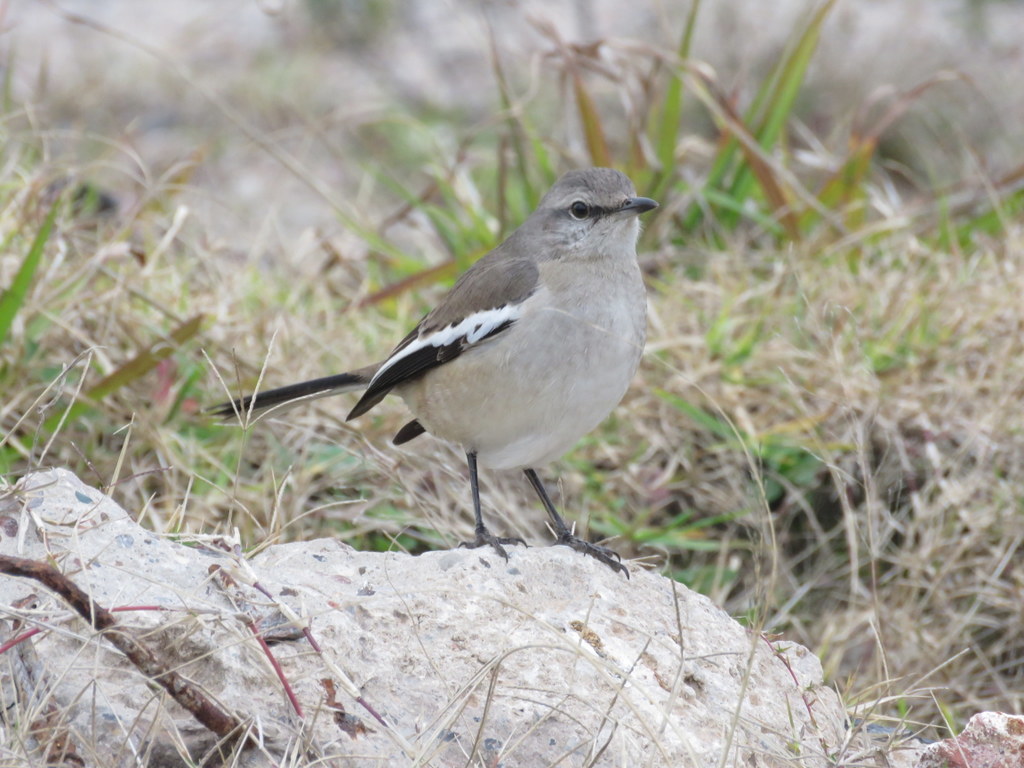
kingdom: Animalia
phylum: Chordata
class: Aves
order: Passeriformes
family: Mimidae
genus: Mimus
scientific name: Mimus triurus
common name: White-banded mockingbird
